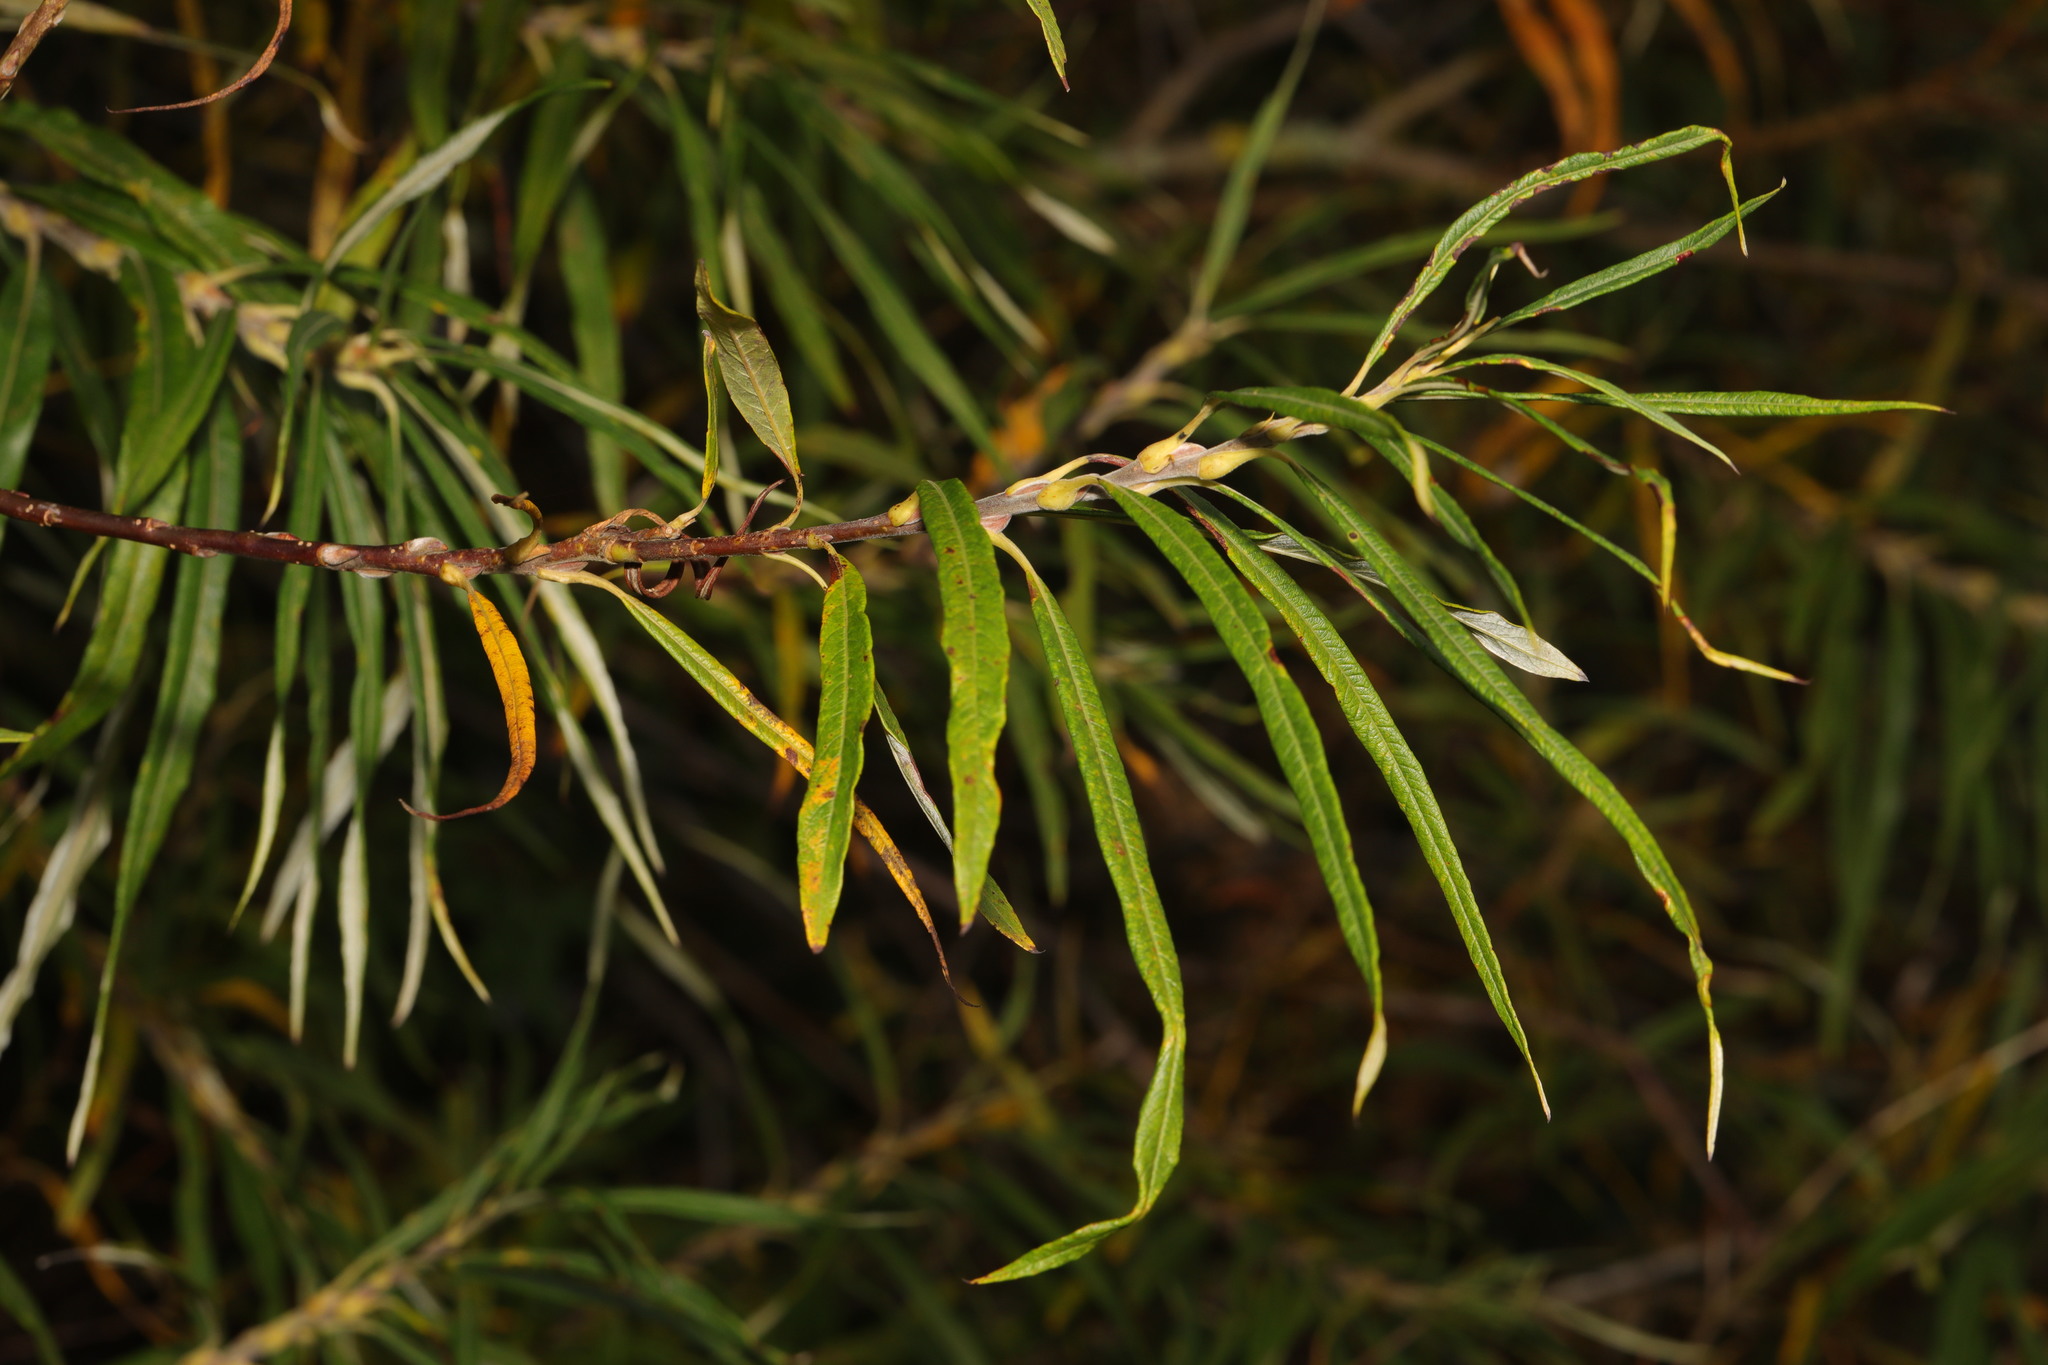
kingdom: Plantae
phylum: Tracheophyta
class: Magnoliopsida
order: Malpighiales
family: Salicaceae
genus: Salix
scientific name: Salix viminalis
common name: Osier
